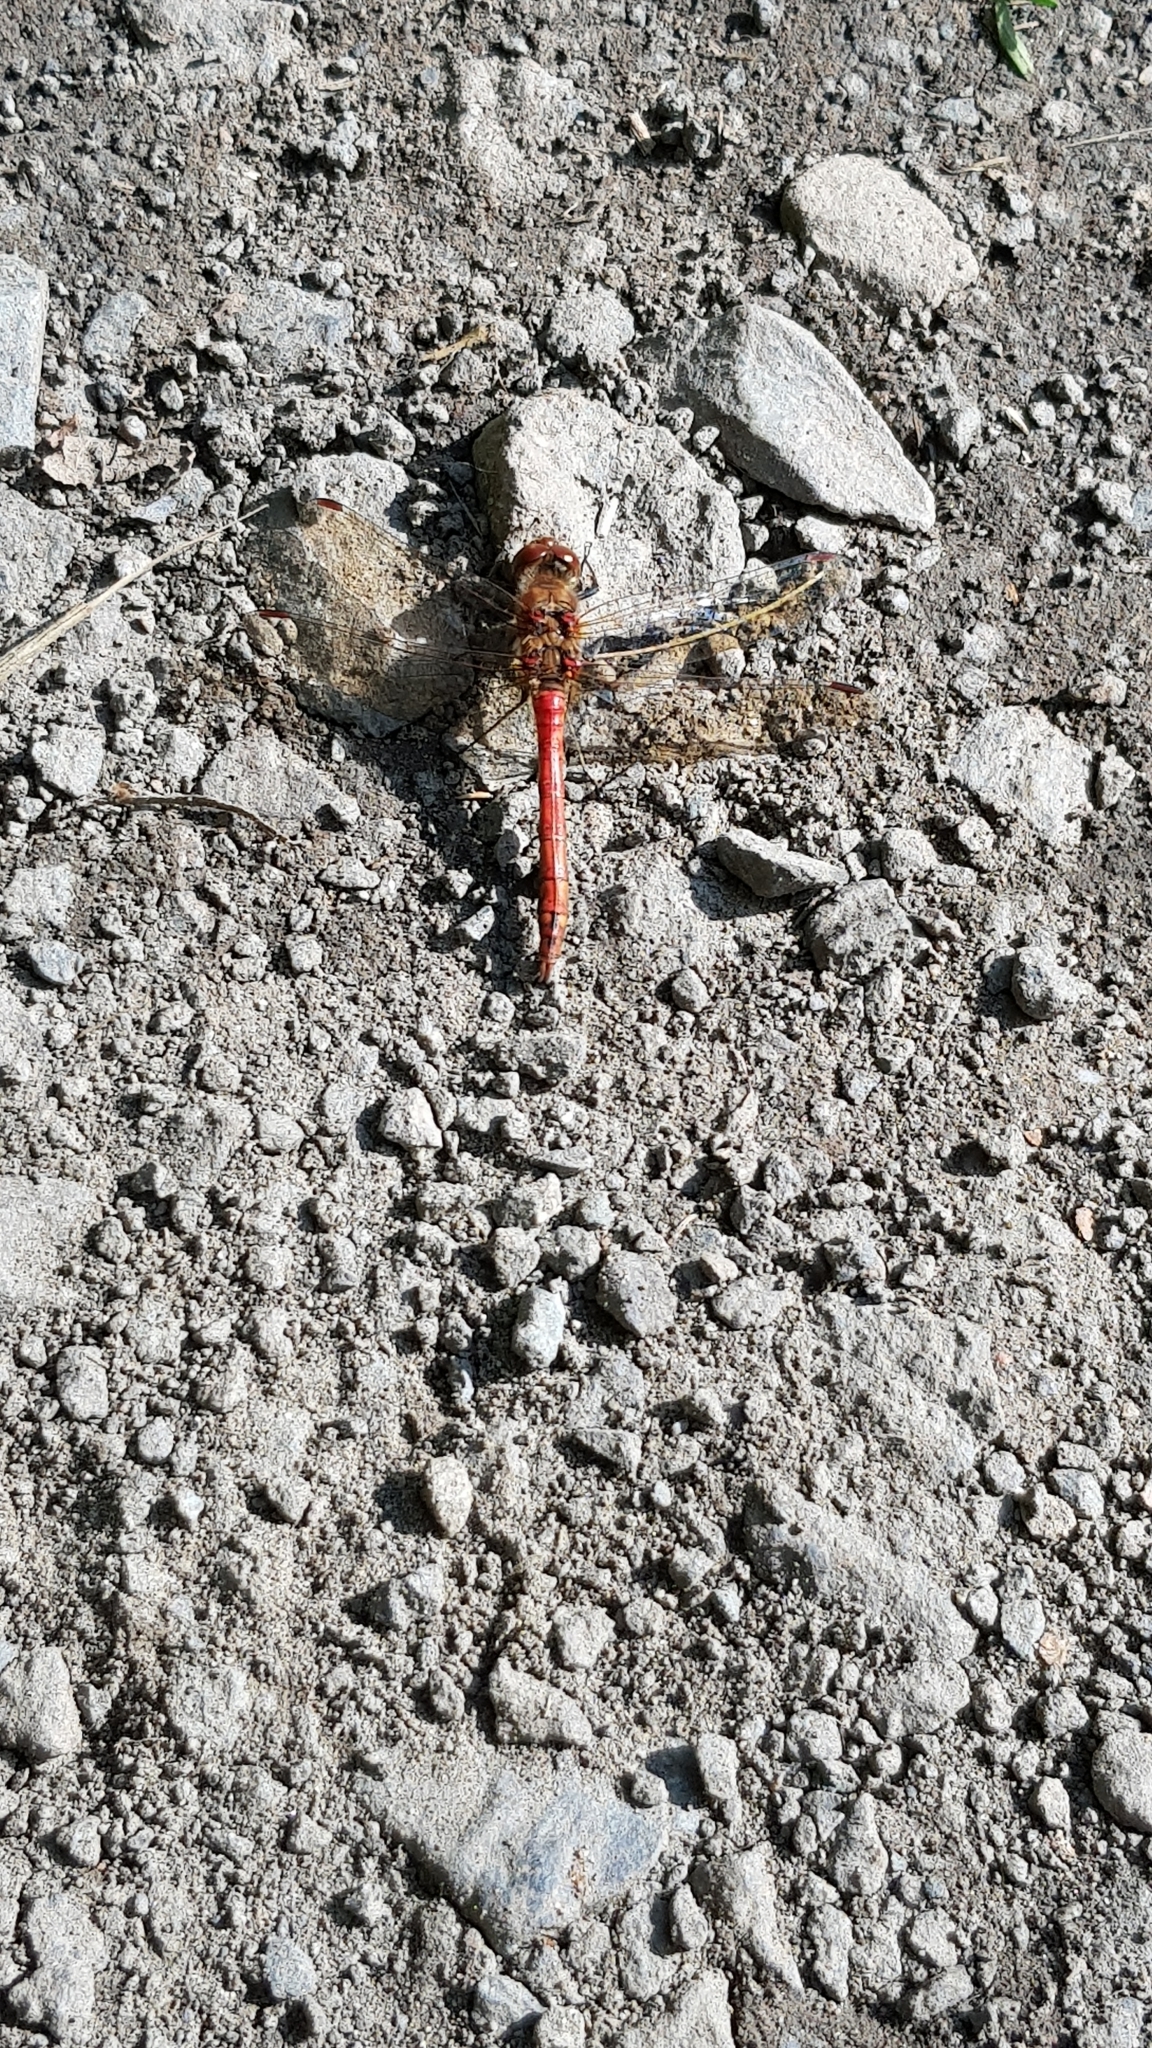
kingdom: Animalia
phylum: Arthropoda
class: Insecta
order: Odonata
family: Libellulidae
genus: Sympetrum
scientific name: Sympetrum striolatum
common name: Common darter
